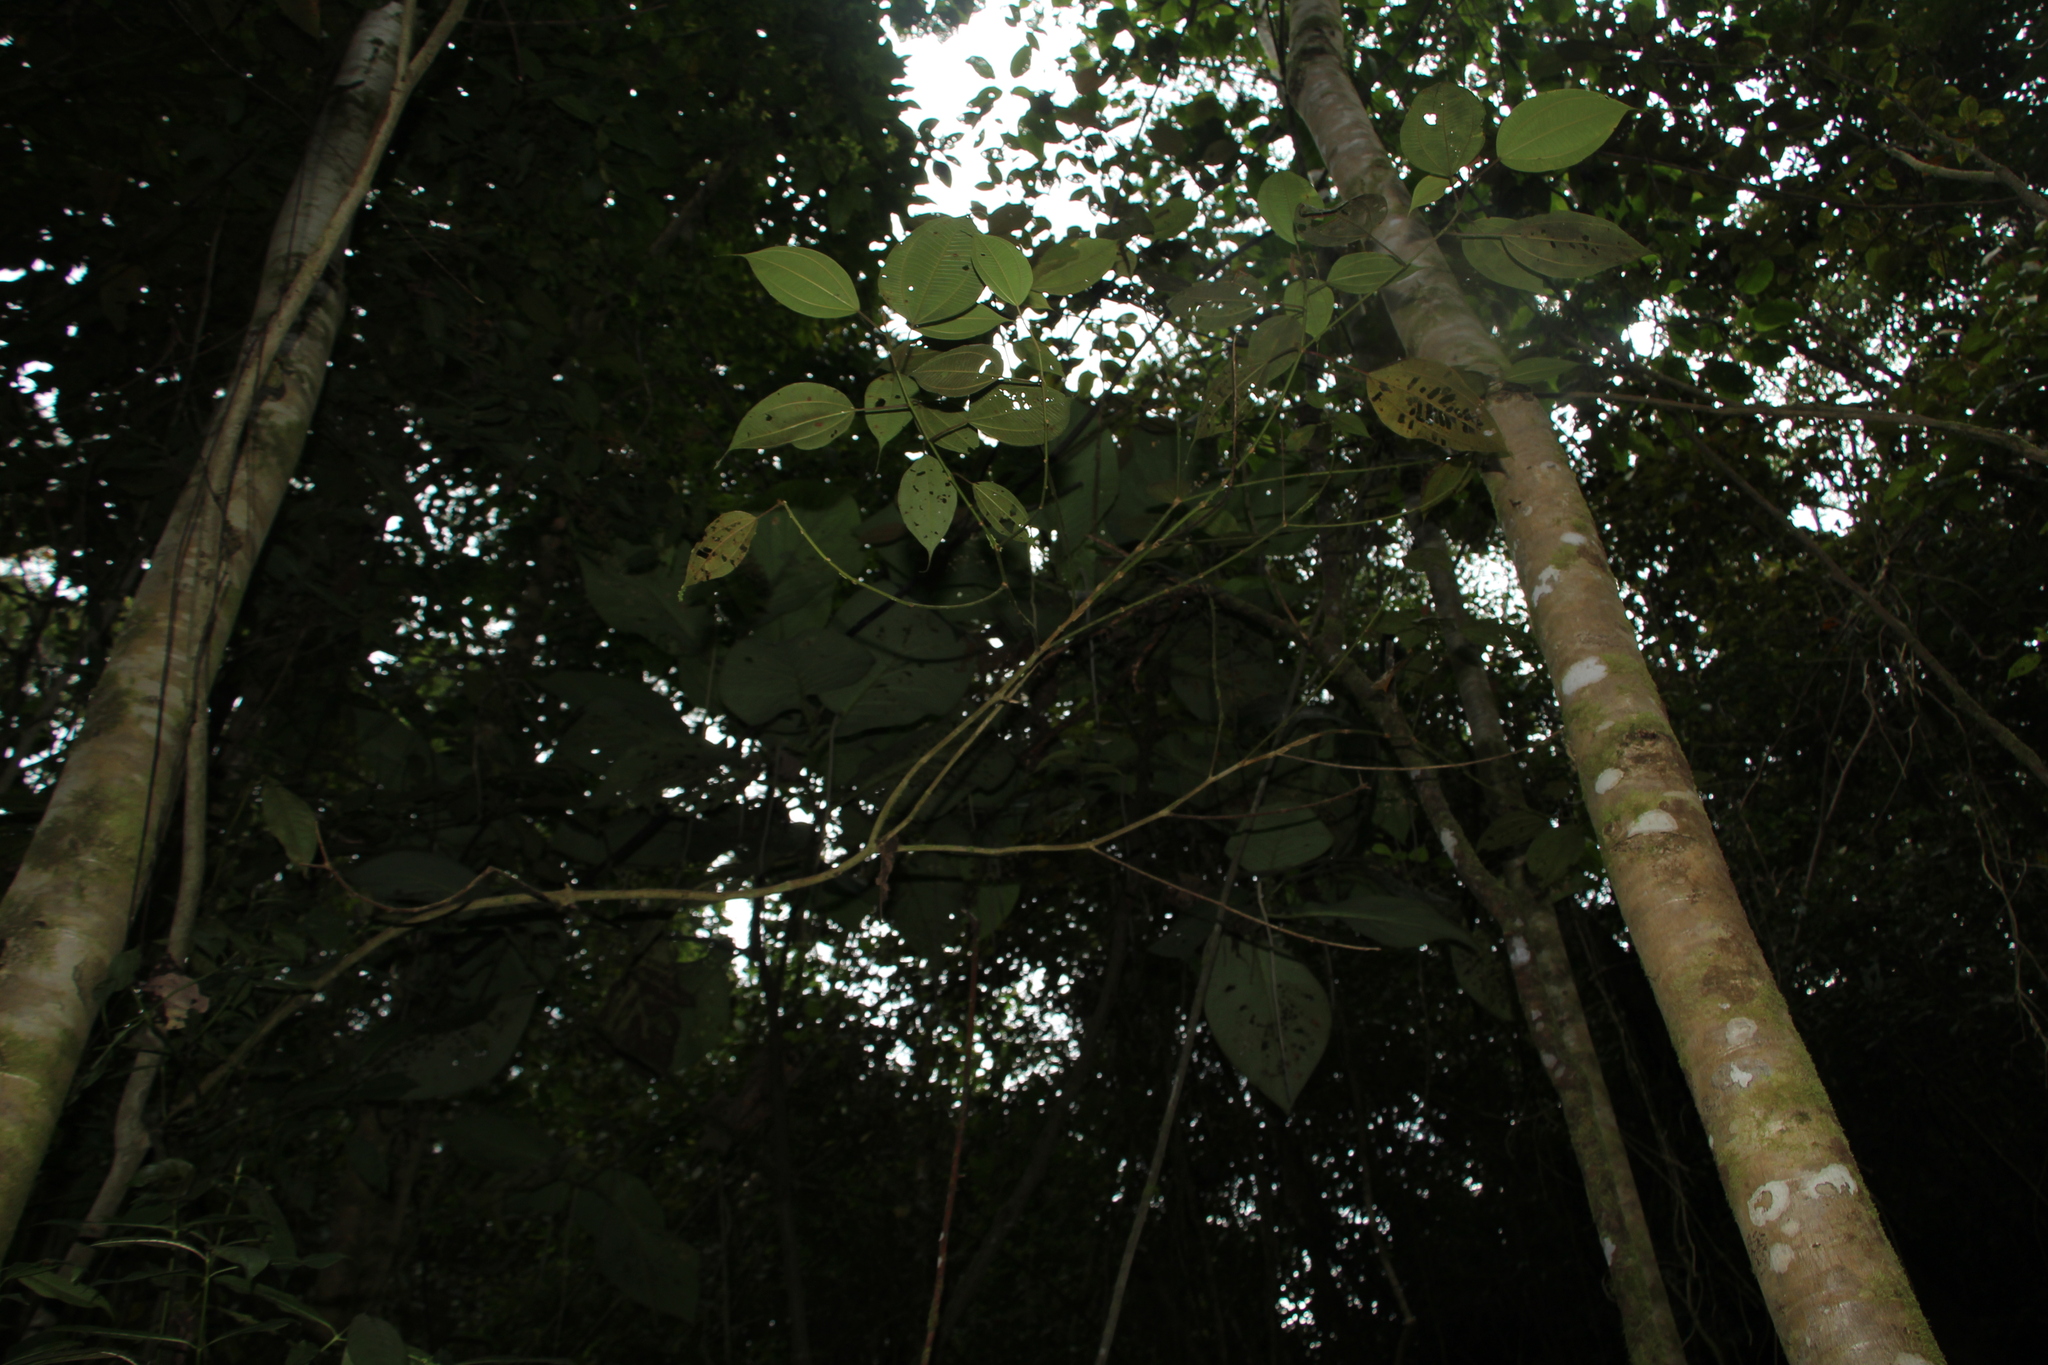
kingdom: Plantae
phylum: Tracheophyta
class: Magnoliopsida
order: Piperales
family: Piperaceae
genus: Piper
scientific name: Piper obliquum
